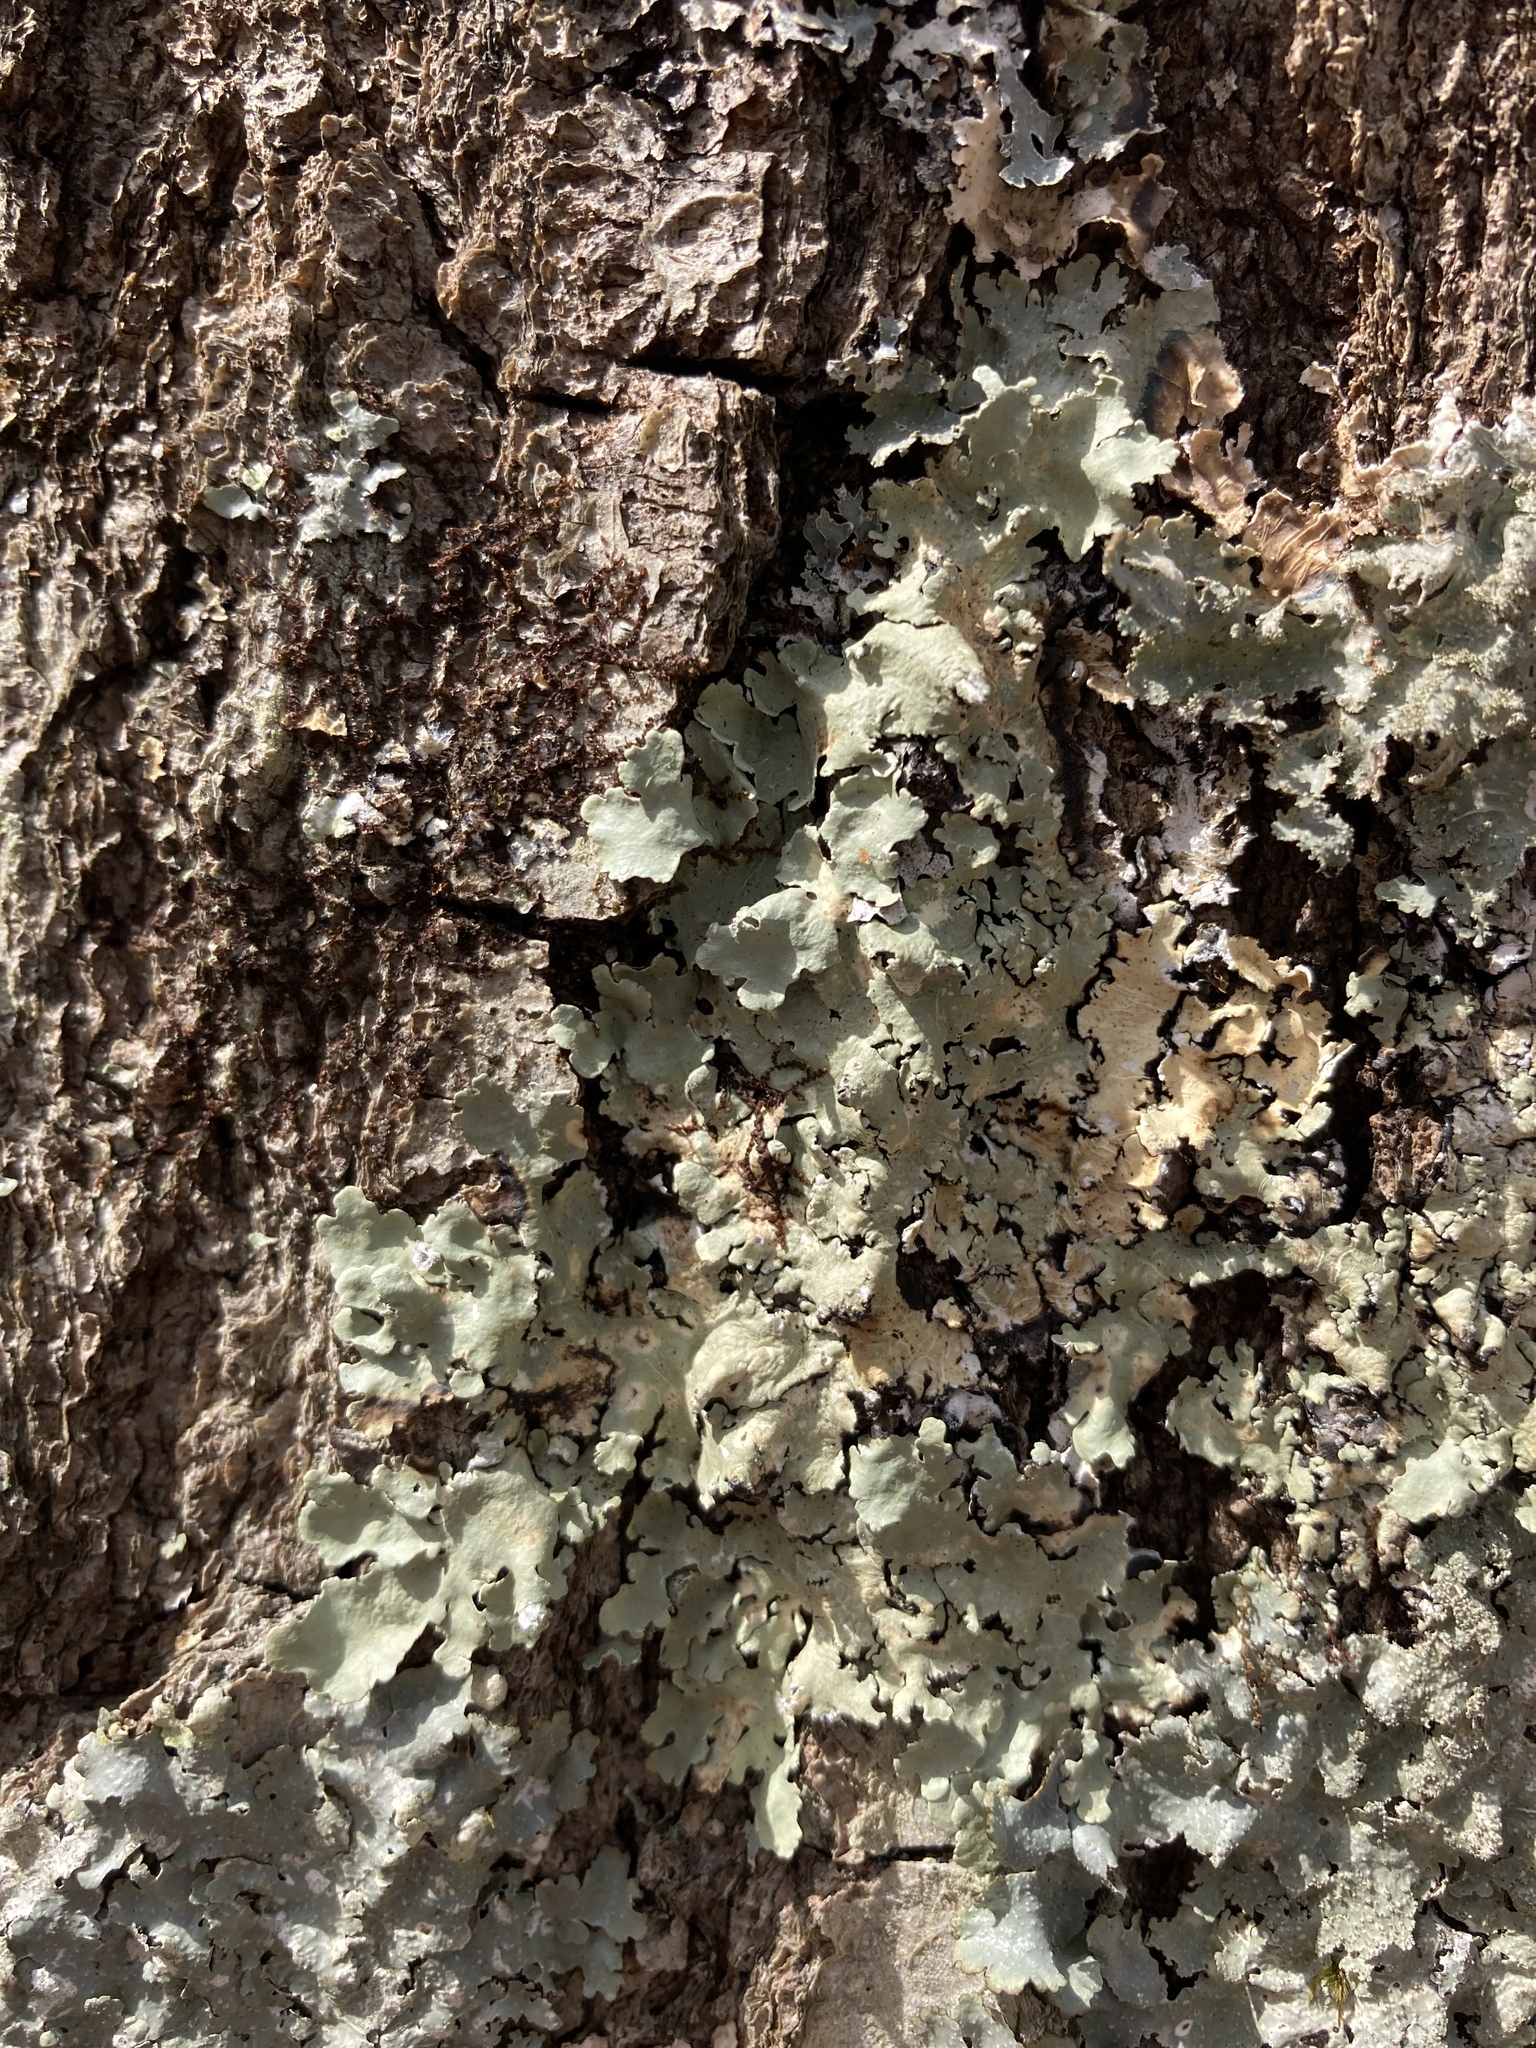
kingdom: Fungi
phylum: Ascomycota
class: Lecanoromycetes
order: Lecanorales
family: Parmeliaceae
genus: Flavoparmelia
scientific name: Flavoparmelia caperata
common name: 40-mile per hour lichen
